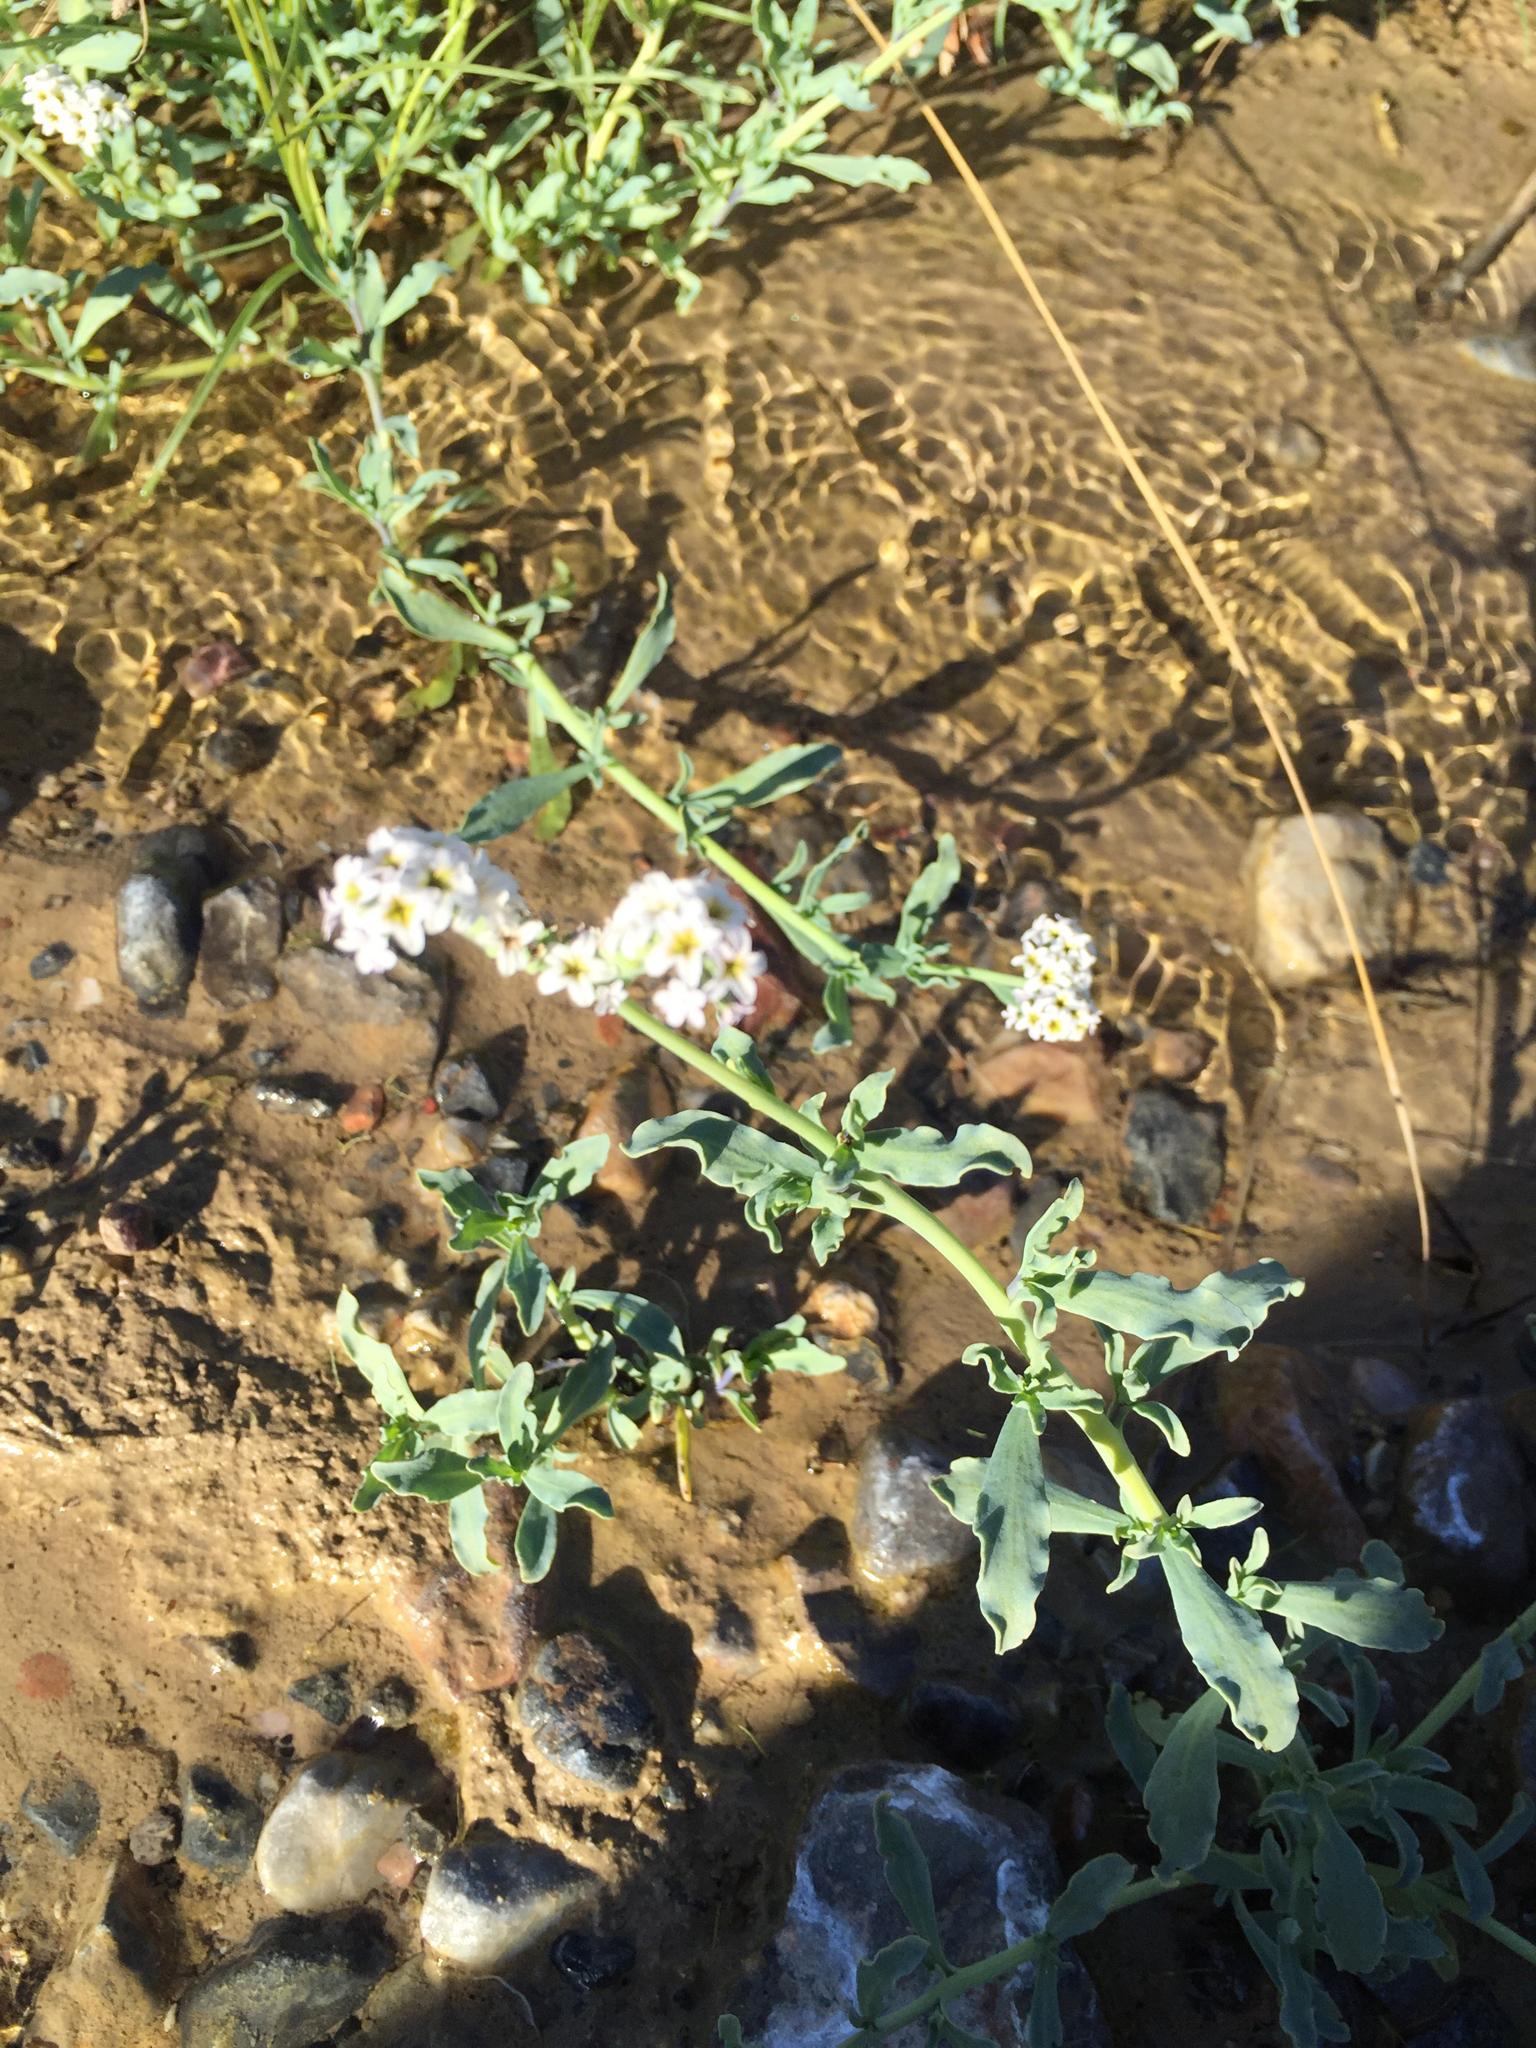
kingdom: Plantae
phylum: Tracheophyta
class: Magnoliopsida
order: Boraginales
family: Heliotropiaceae
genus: Heliotropium
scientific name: Heliotropium curassavicum
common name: Seaside heliotrope
